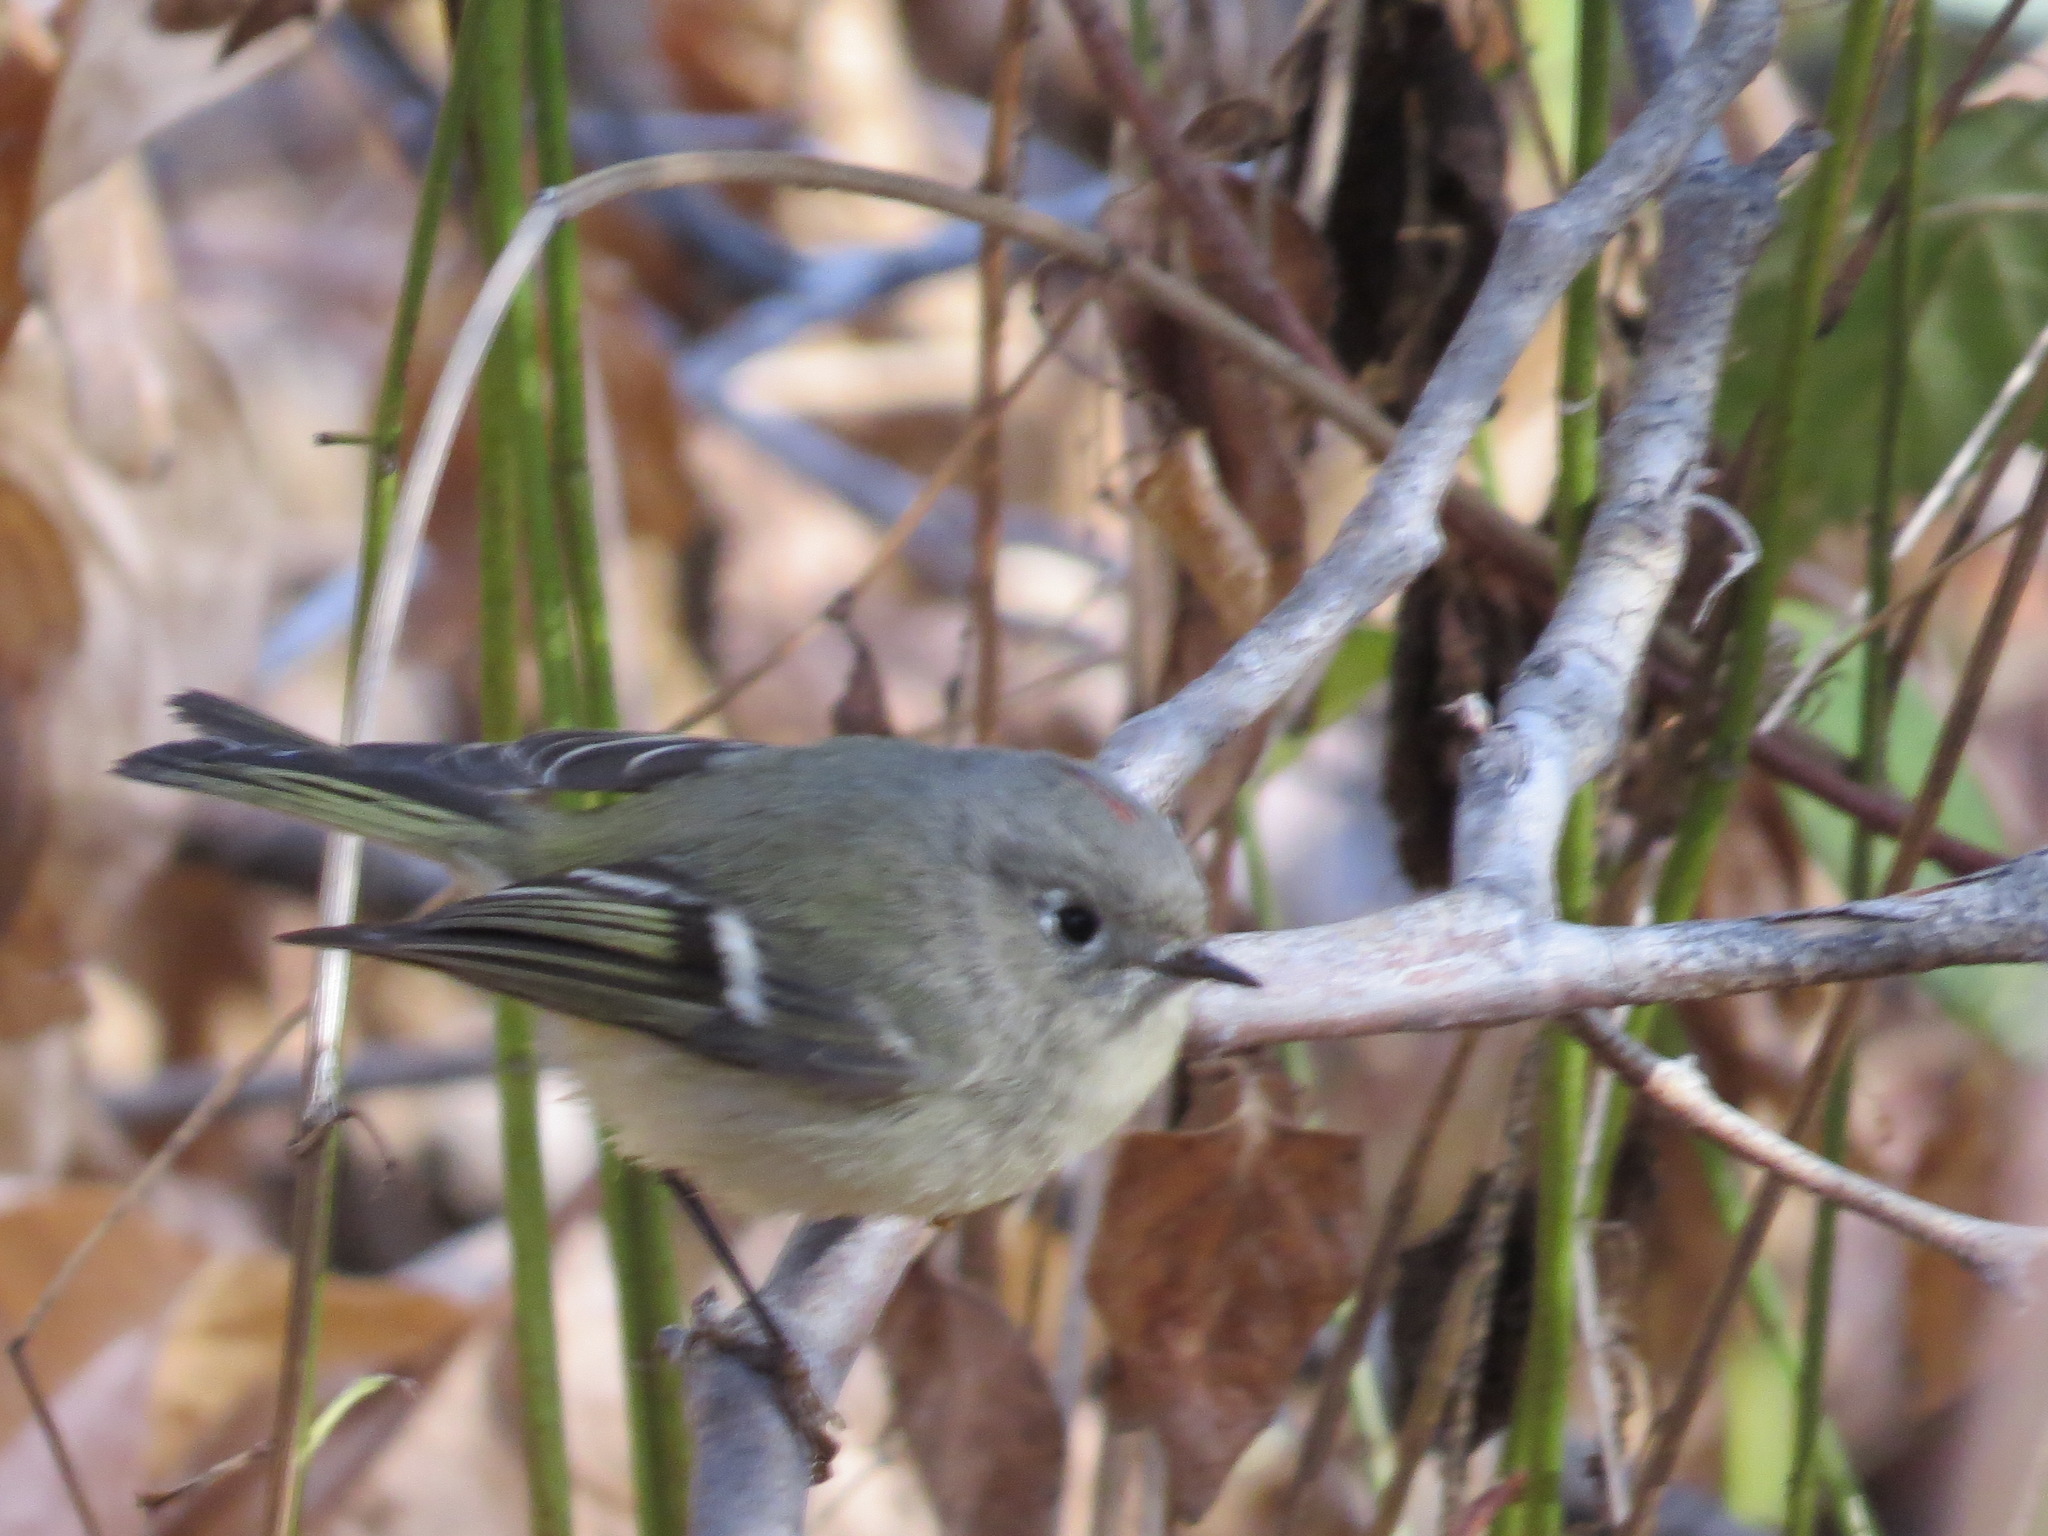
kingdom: Animalia
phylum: Chordata
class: Aves
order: Passeriformes
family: Regulidae
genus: Regulus
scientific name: Regulus calendula
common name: Ruby-crowned kinglet
